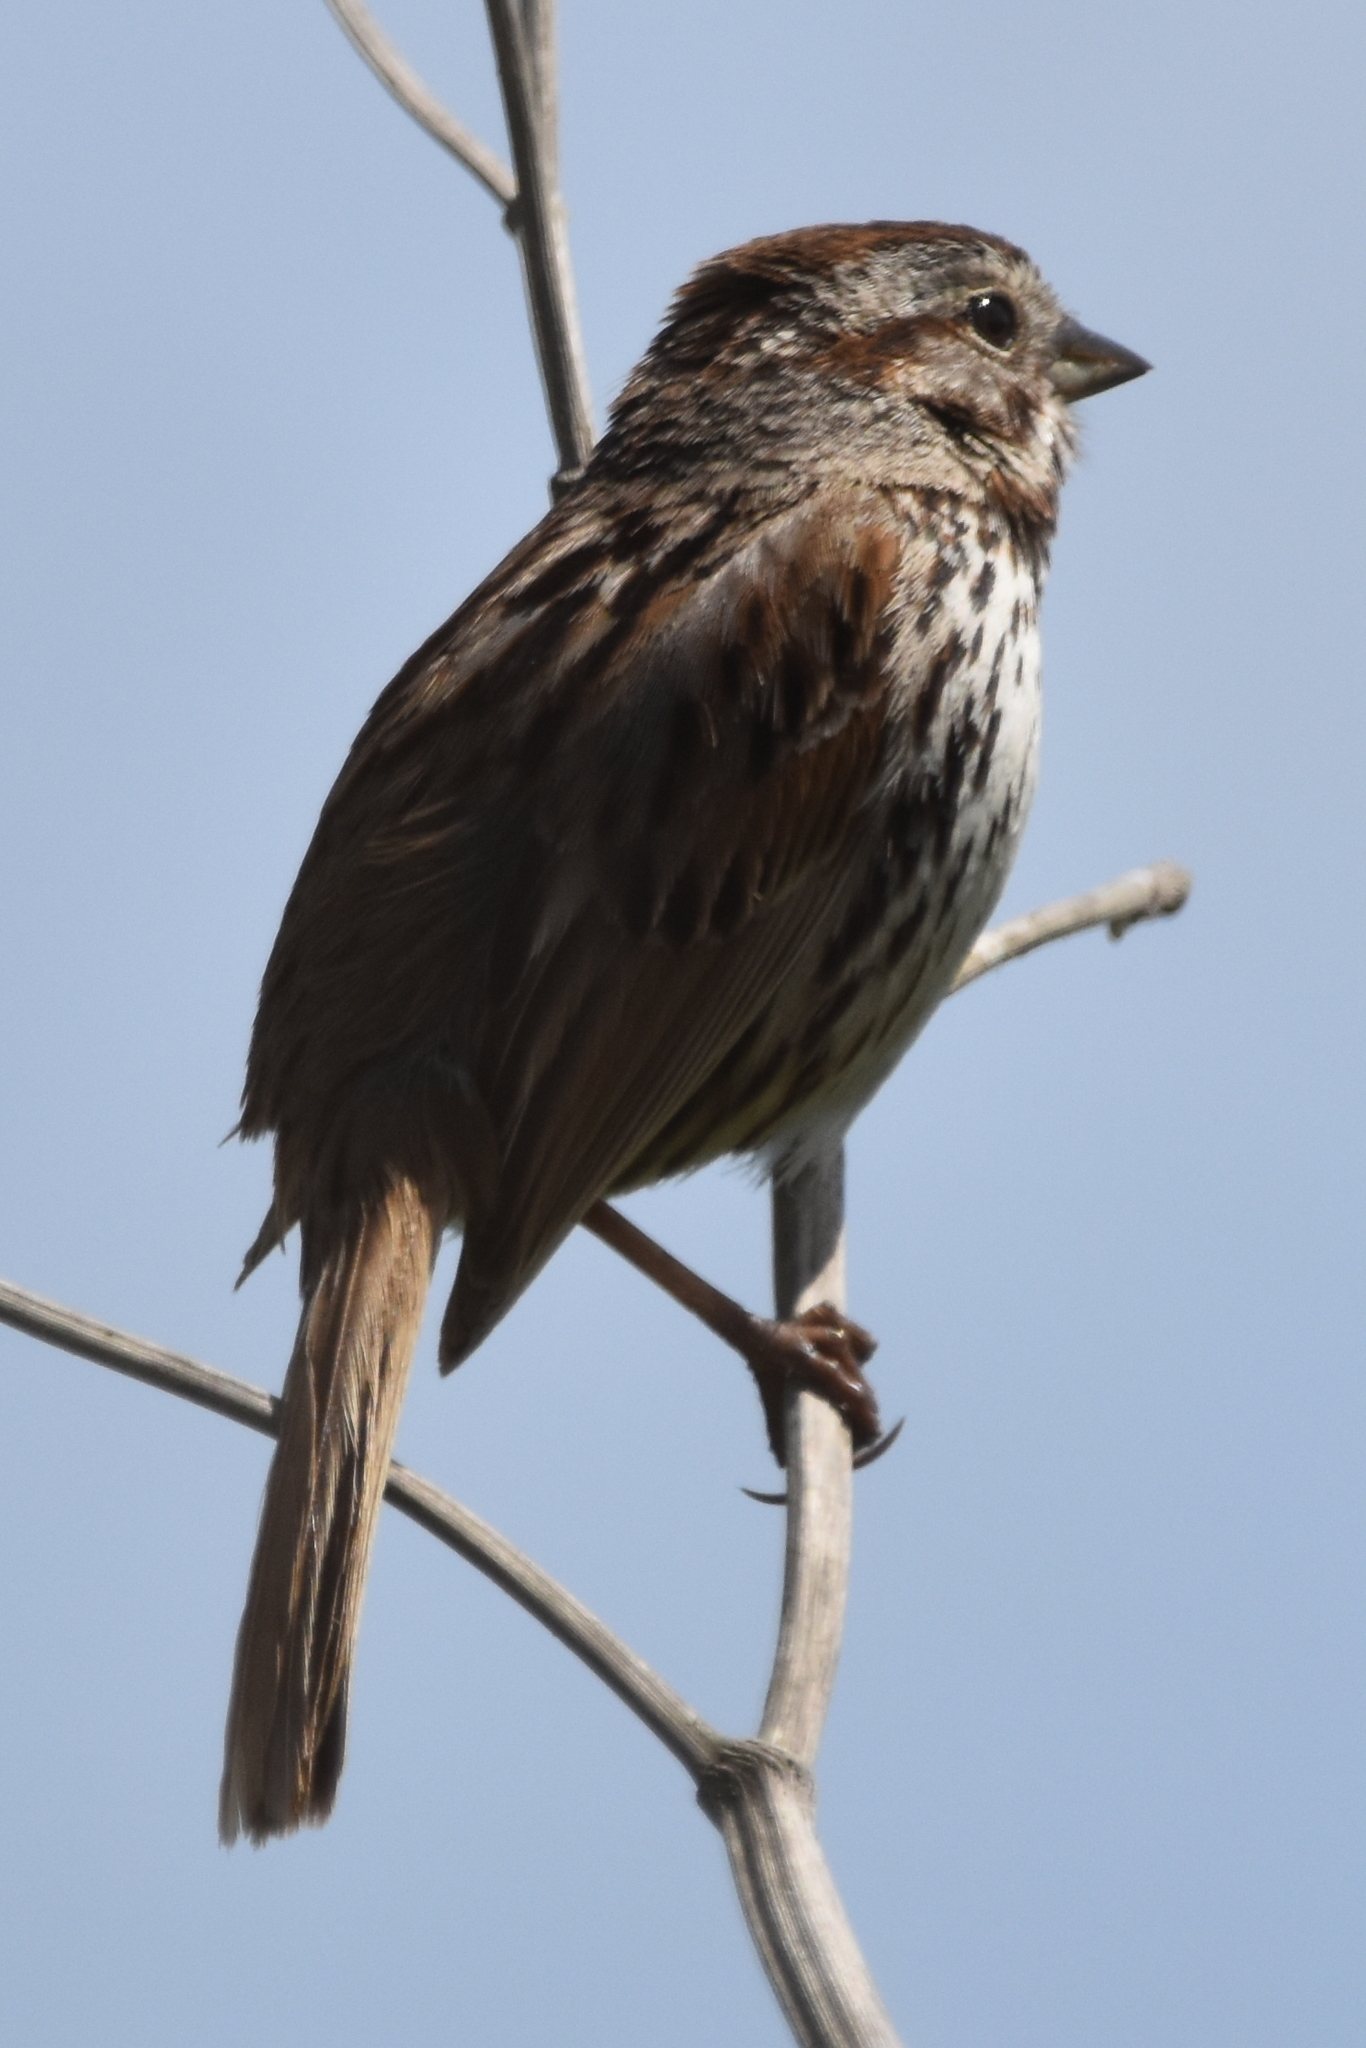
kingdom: Animalia
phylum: Chordata
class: Aves
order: Passeriformes
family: Passerellidae
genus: Melospiza
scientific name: Melospiza melodia
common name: Song sparrow
